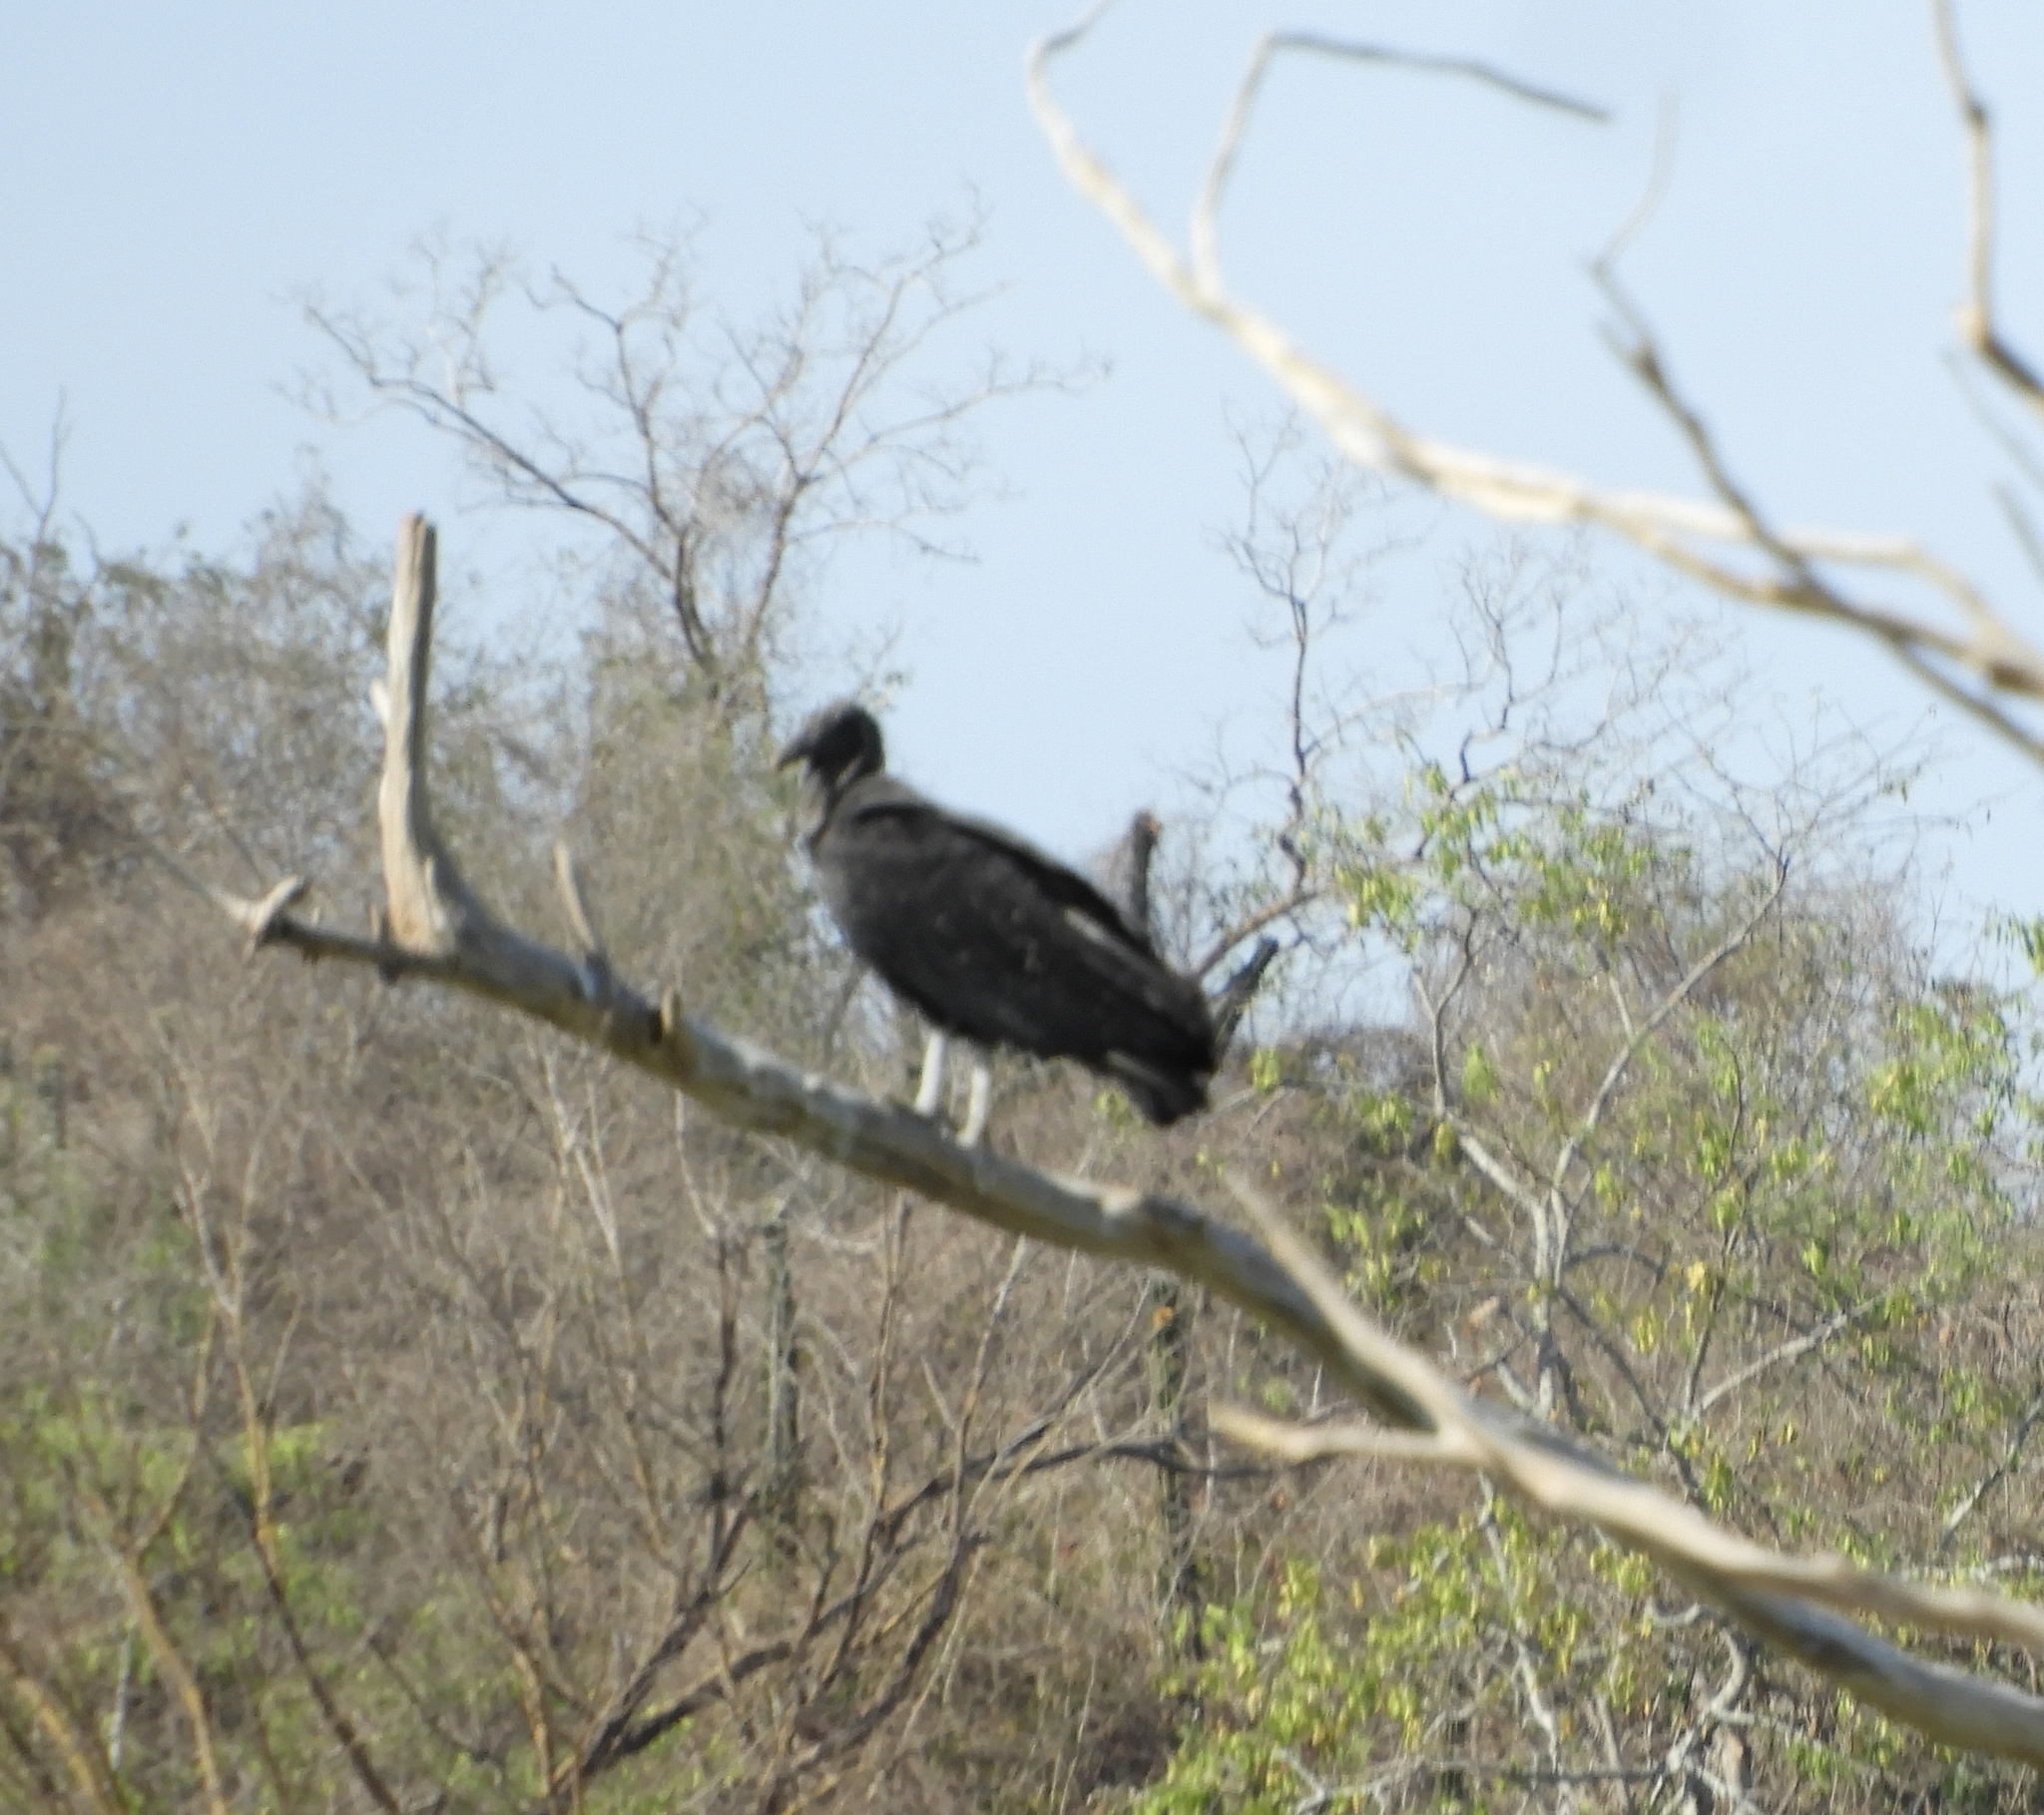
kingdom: Animalia
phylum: Chordata
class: Aves
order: Accipitriformes
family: Cathartidae
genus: Coragyps
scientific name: Coragyps atratus
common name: Black vulture
